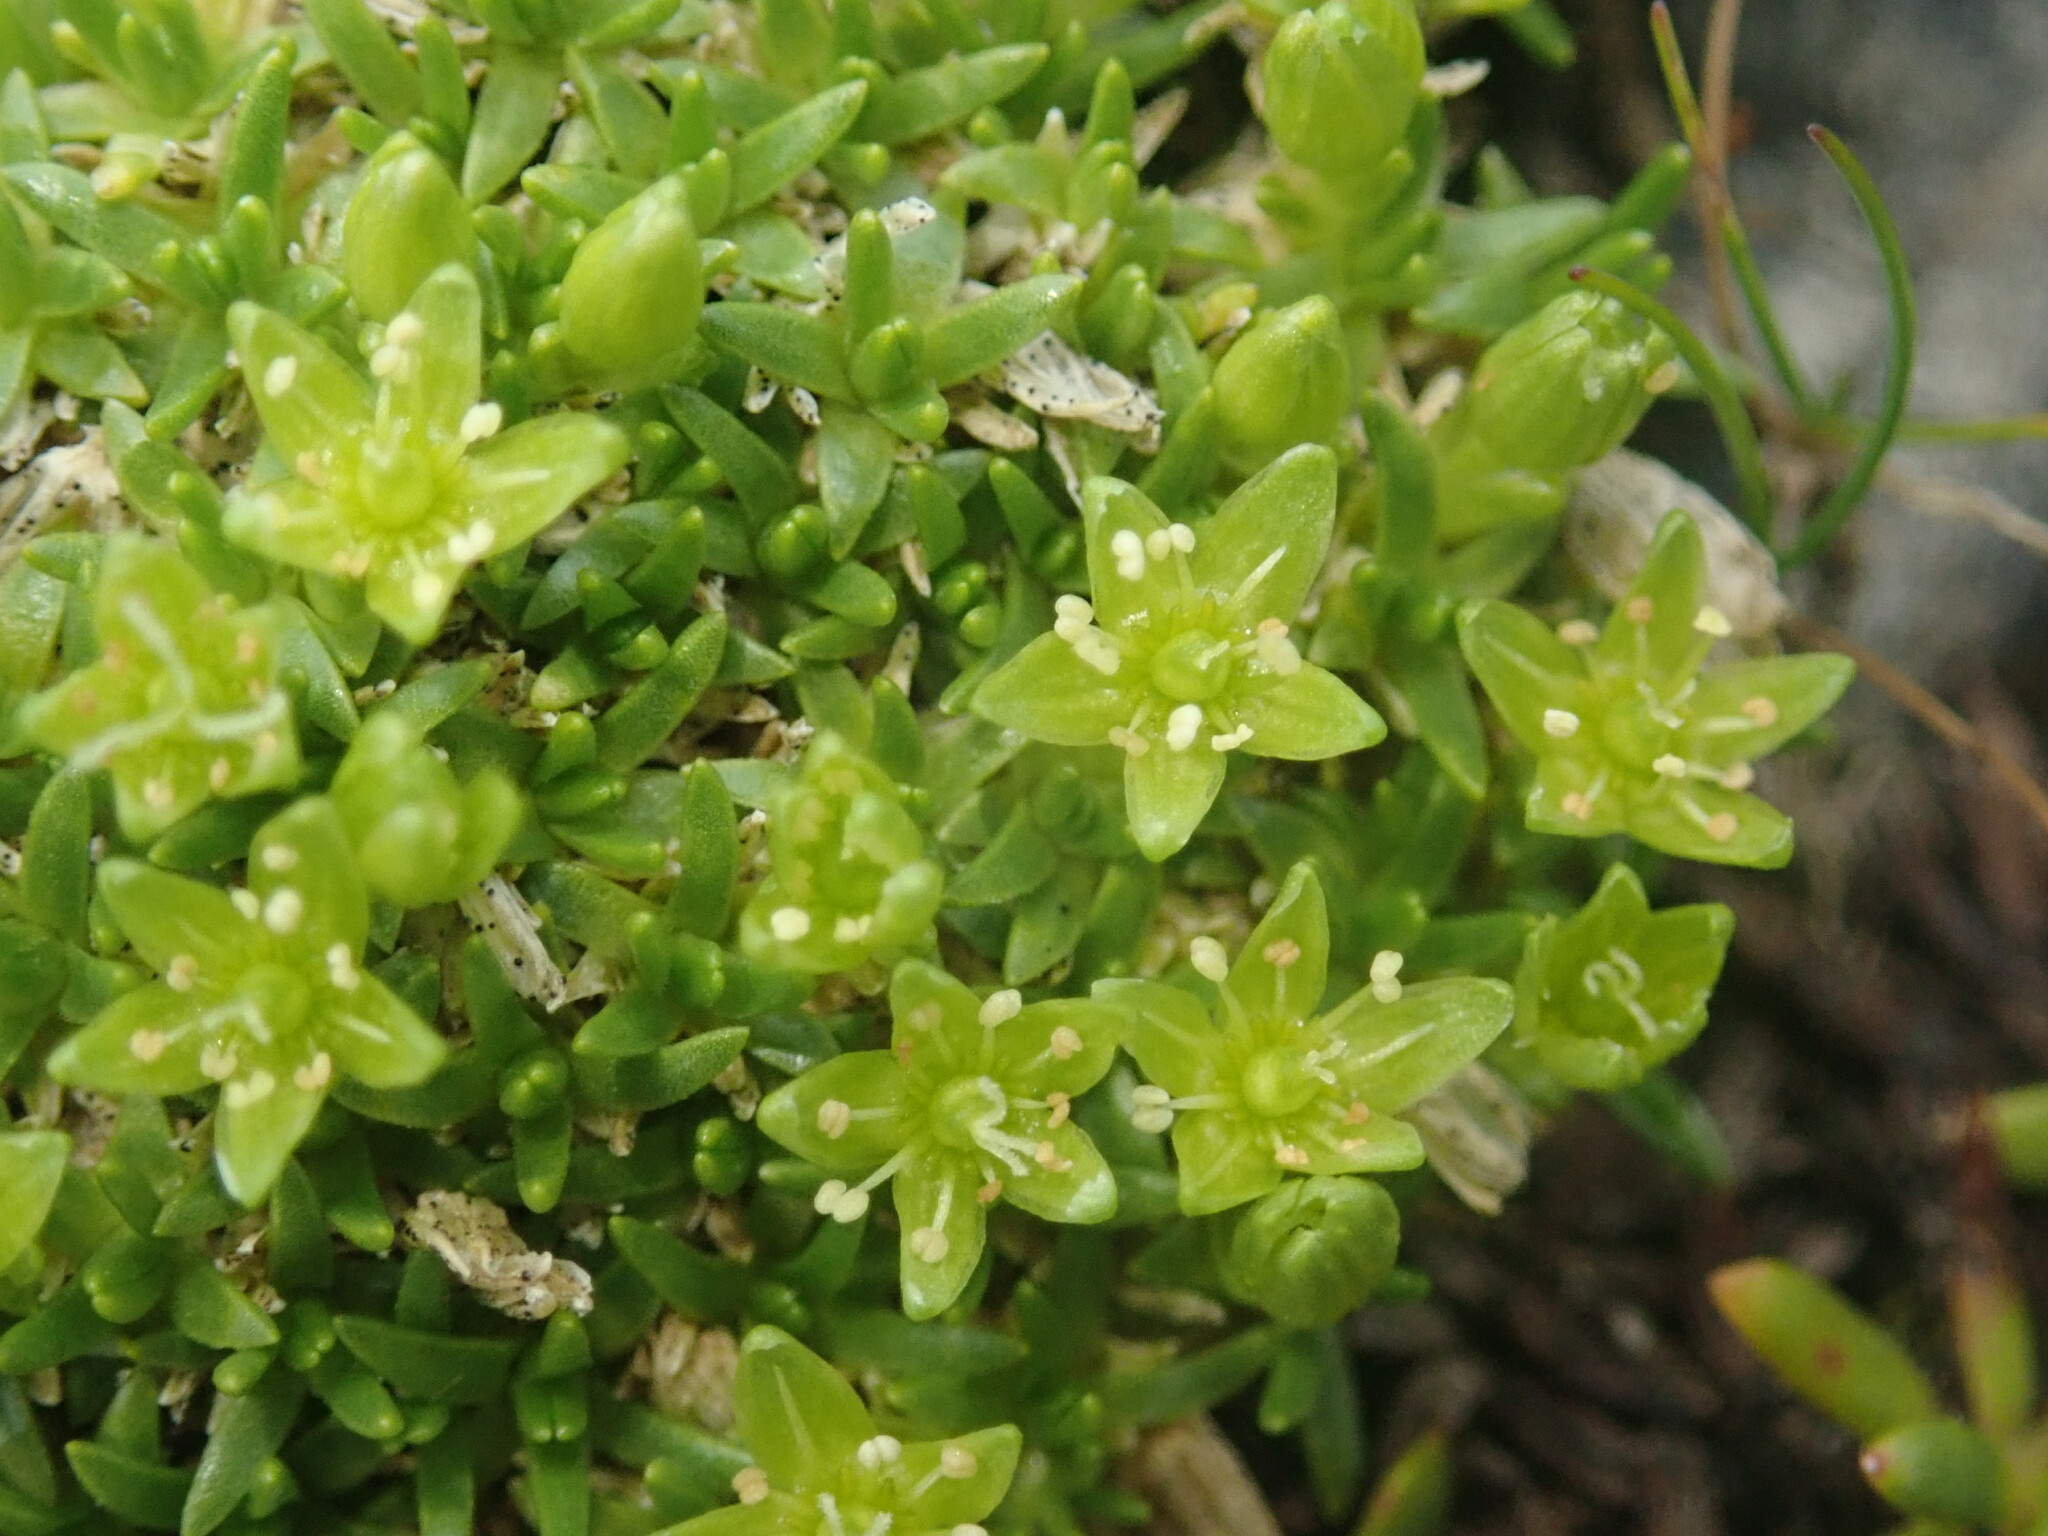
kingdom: Plantae
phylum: Tracheophyta
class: Magnoliopsida
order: Caryophyllales
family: Caryophyllaceae
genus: Cherleria
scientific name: Cherleria sedoides
